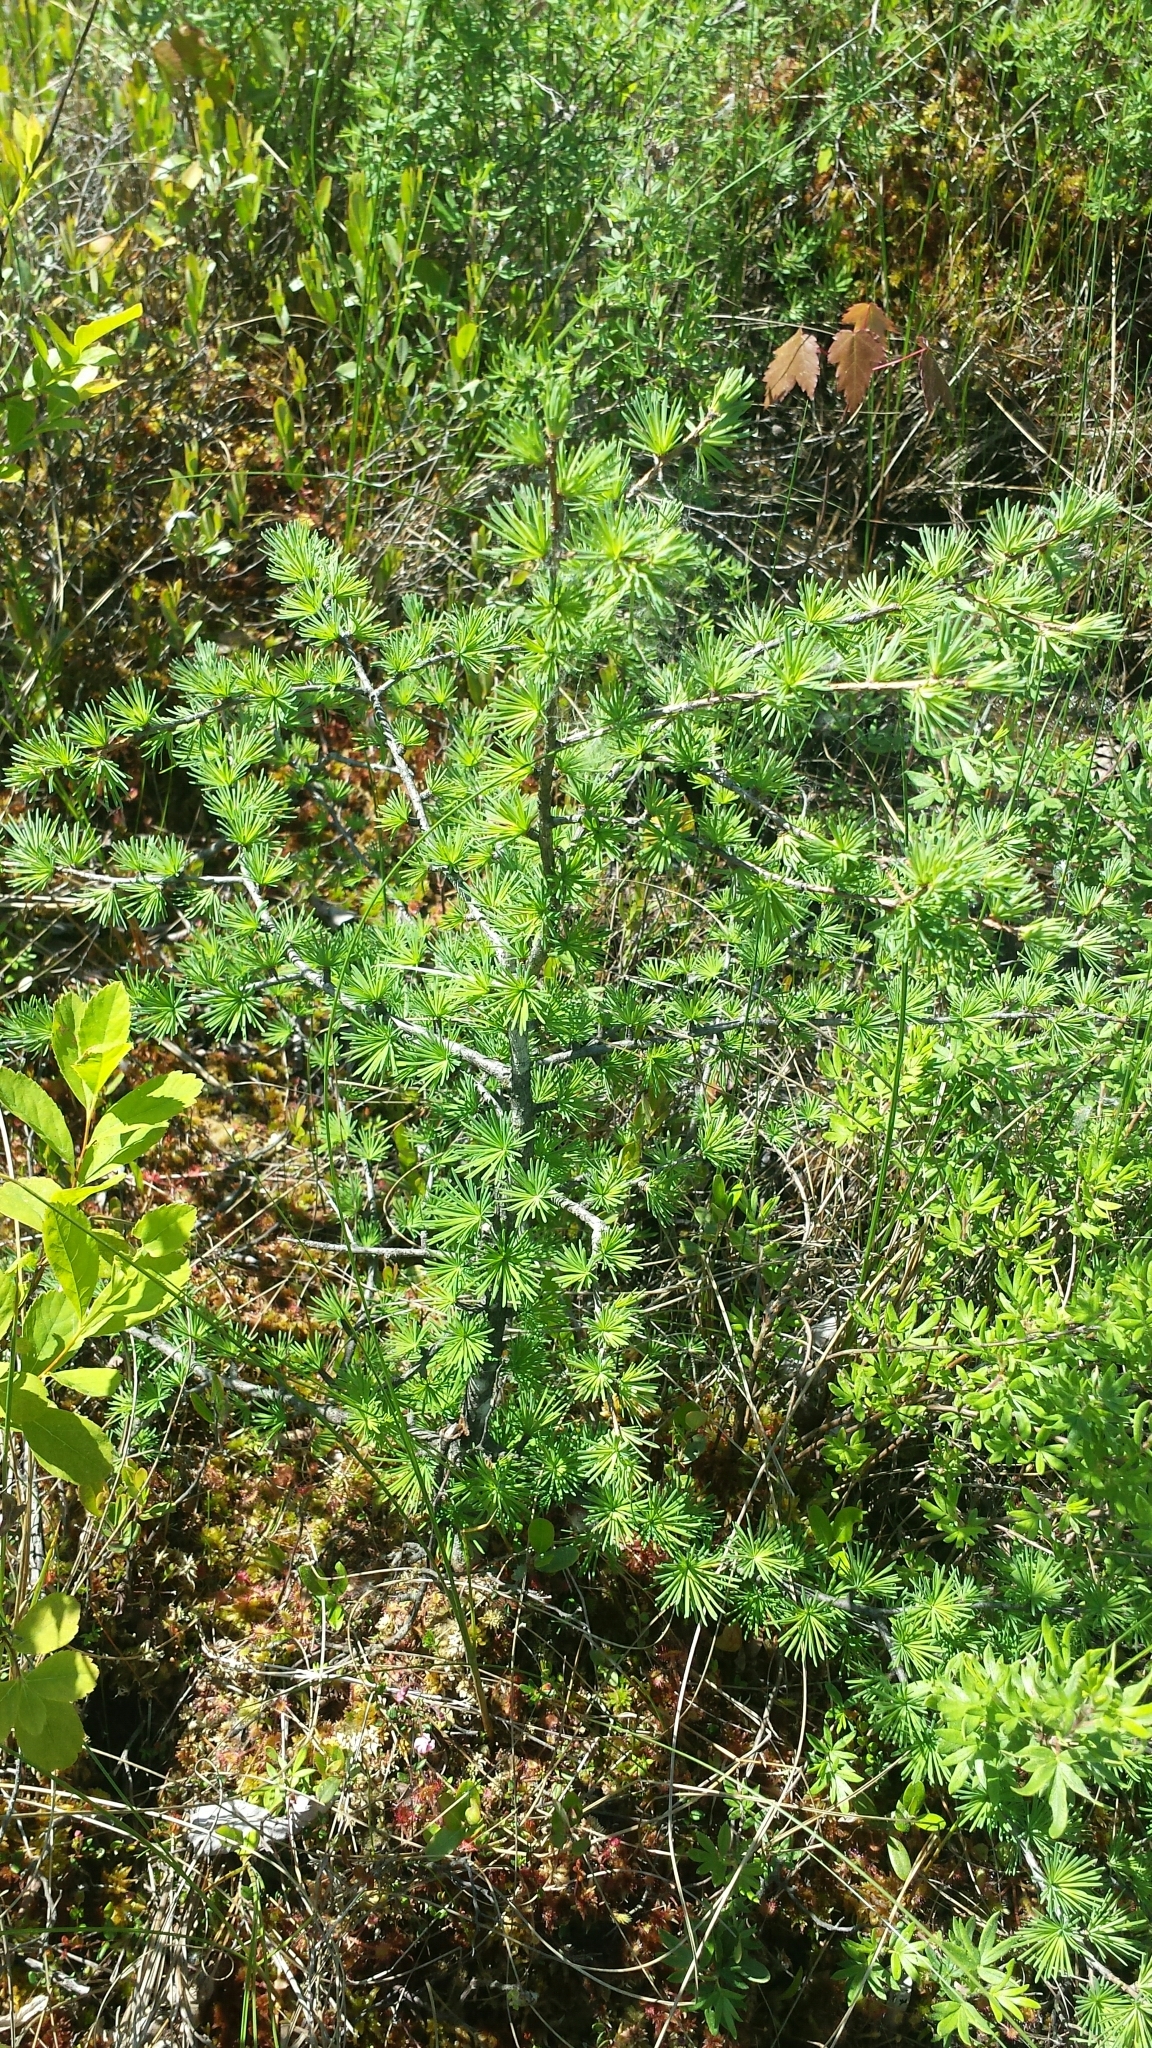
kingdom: Plantae
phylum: Tracheophyta
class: Pinopsida
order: Pinales
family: Pinaceae
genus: Larix
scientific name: Larix laricina
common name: American larch
